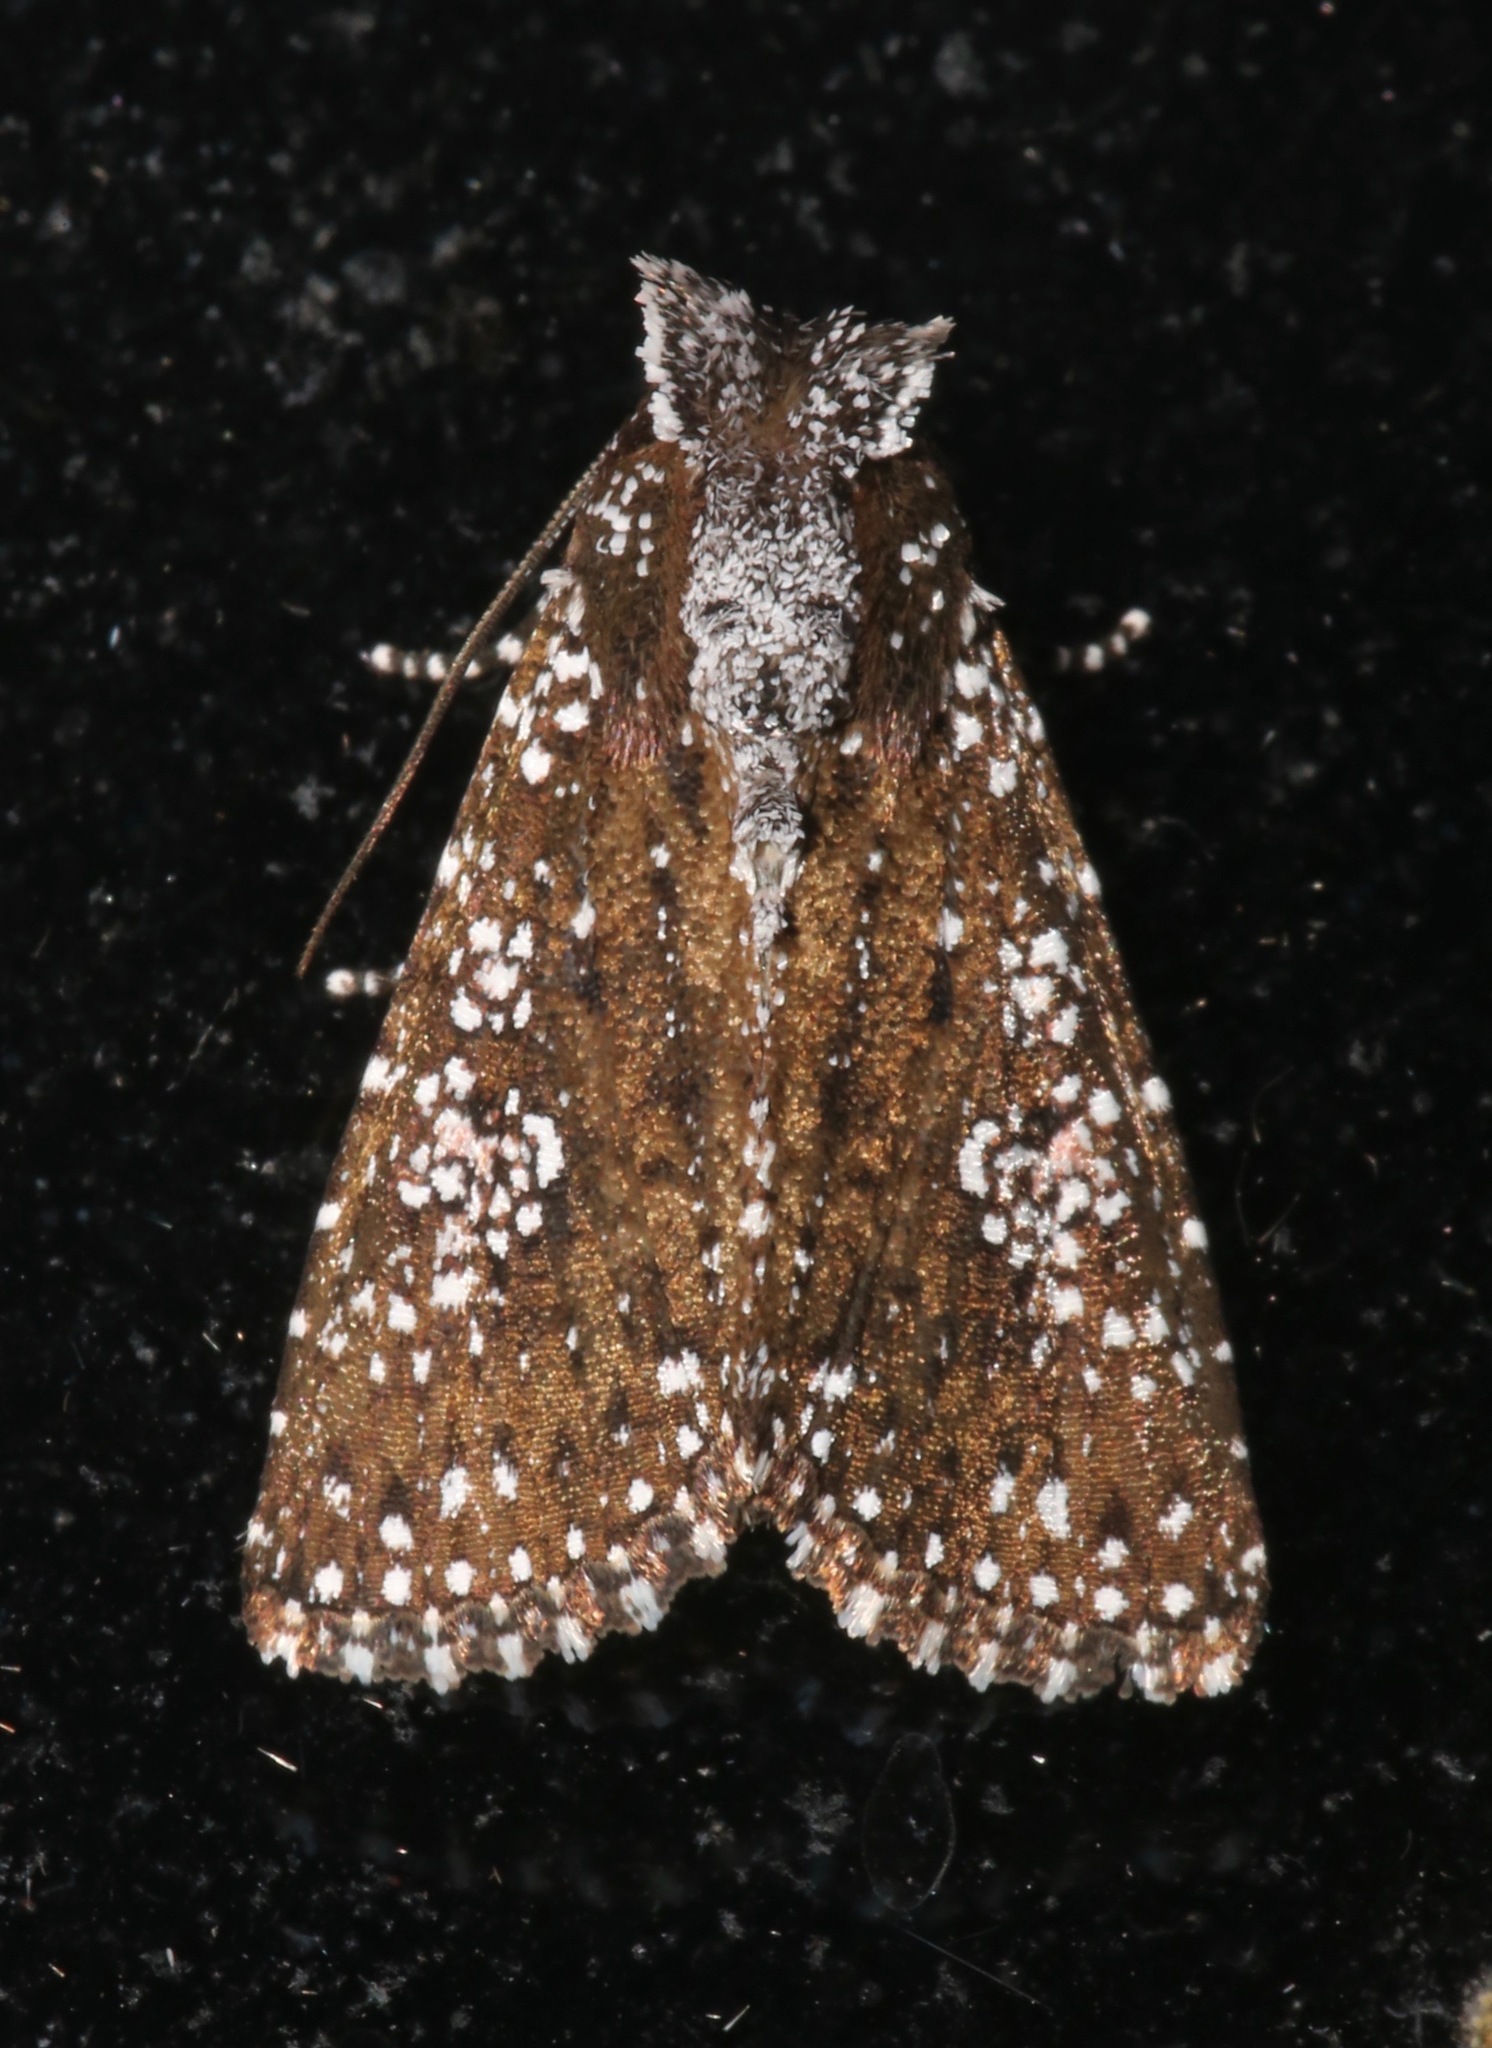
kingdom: Animalia
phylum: Arthropoda
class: Insecta
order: Lepidoptera
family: Noctuidae
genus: Condica
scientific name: Condica
